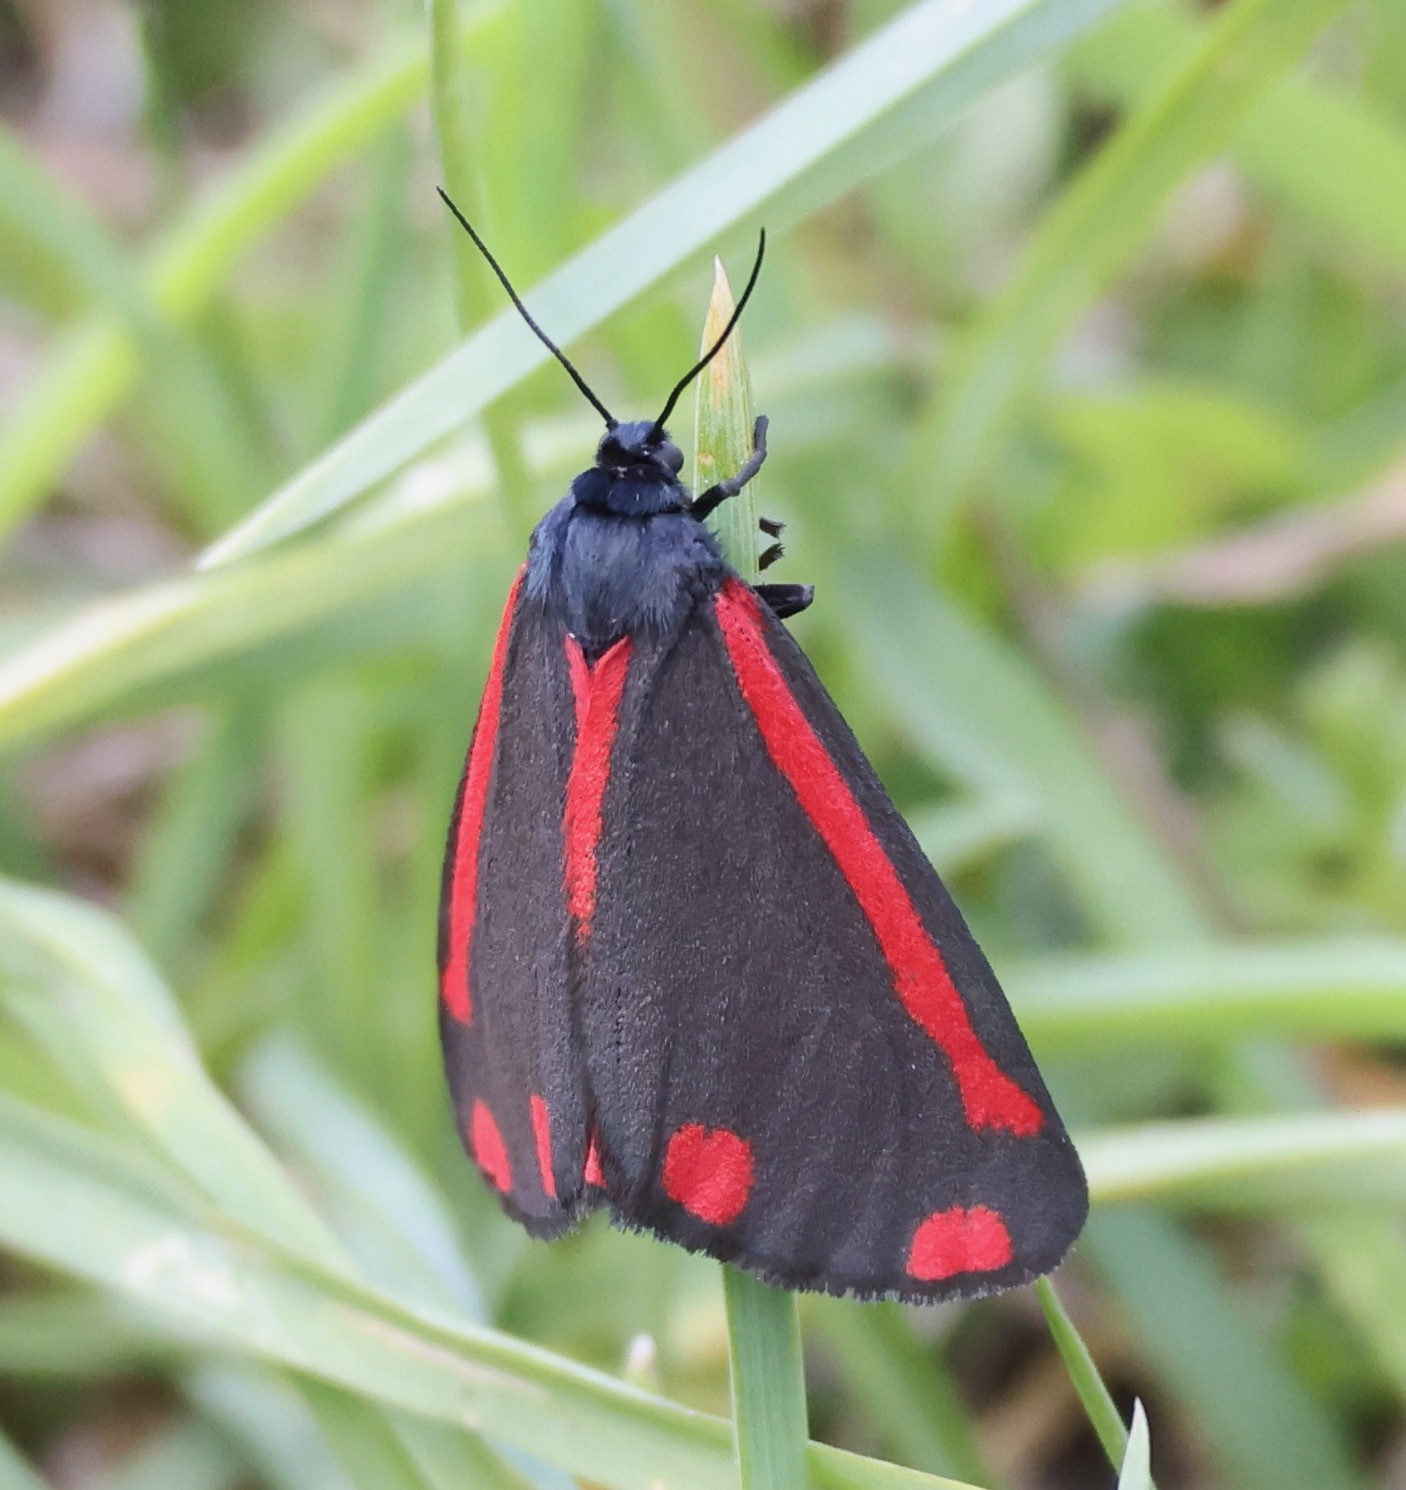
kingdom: Animalia
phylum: Arthropoda
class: Insecta
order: Lepidoptera
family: Erebidae
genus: Tyria
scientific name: Tyria jacobaeae
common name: Cinnabar
